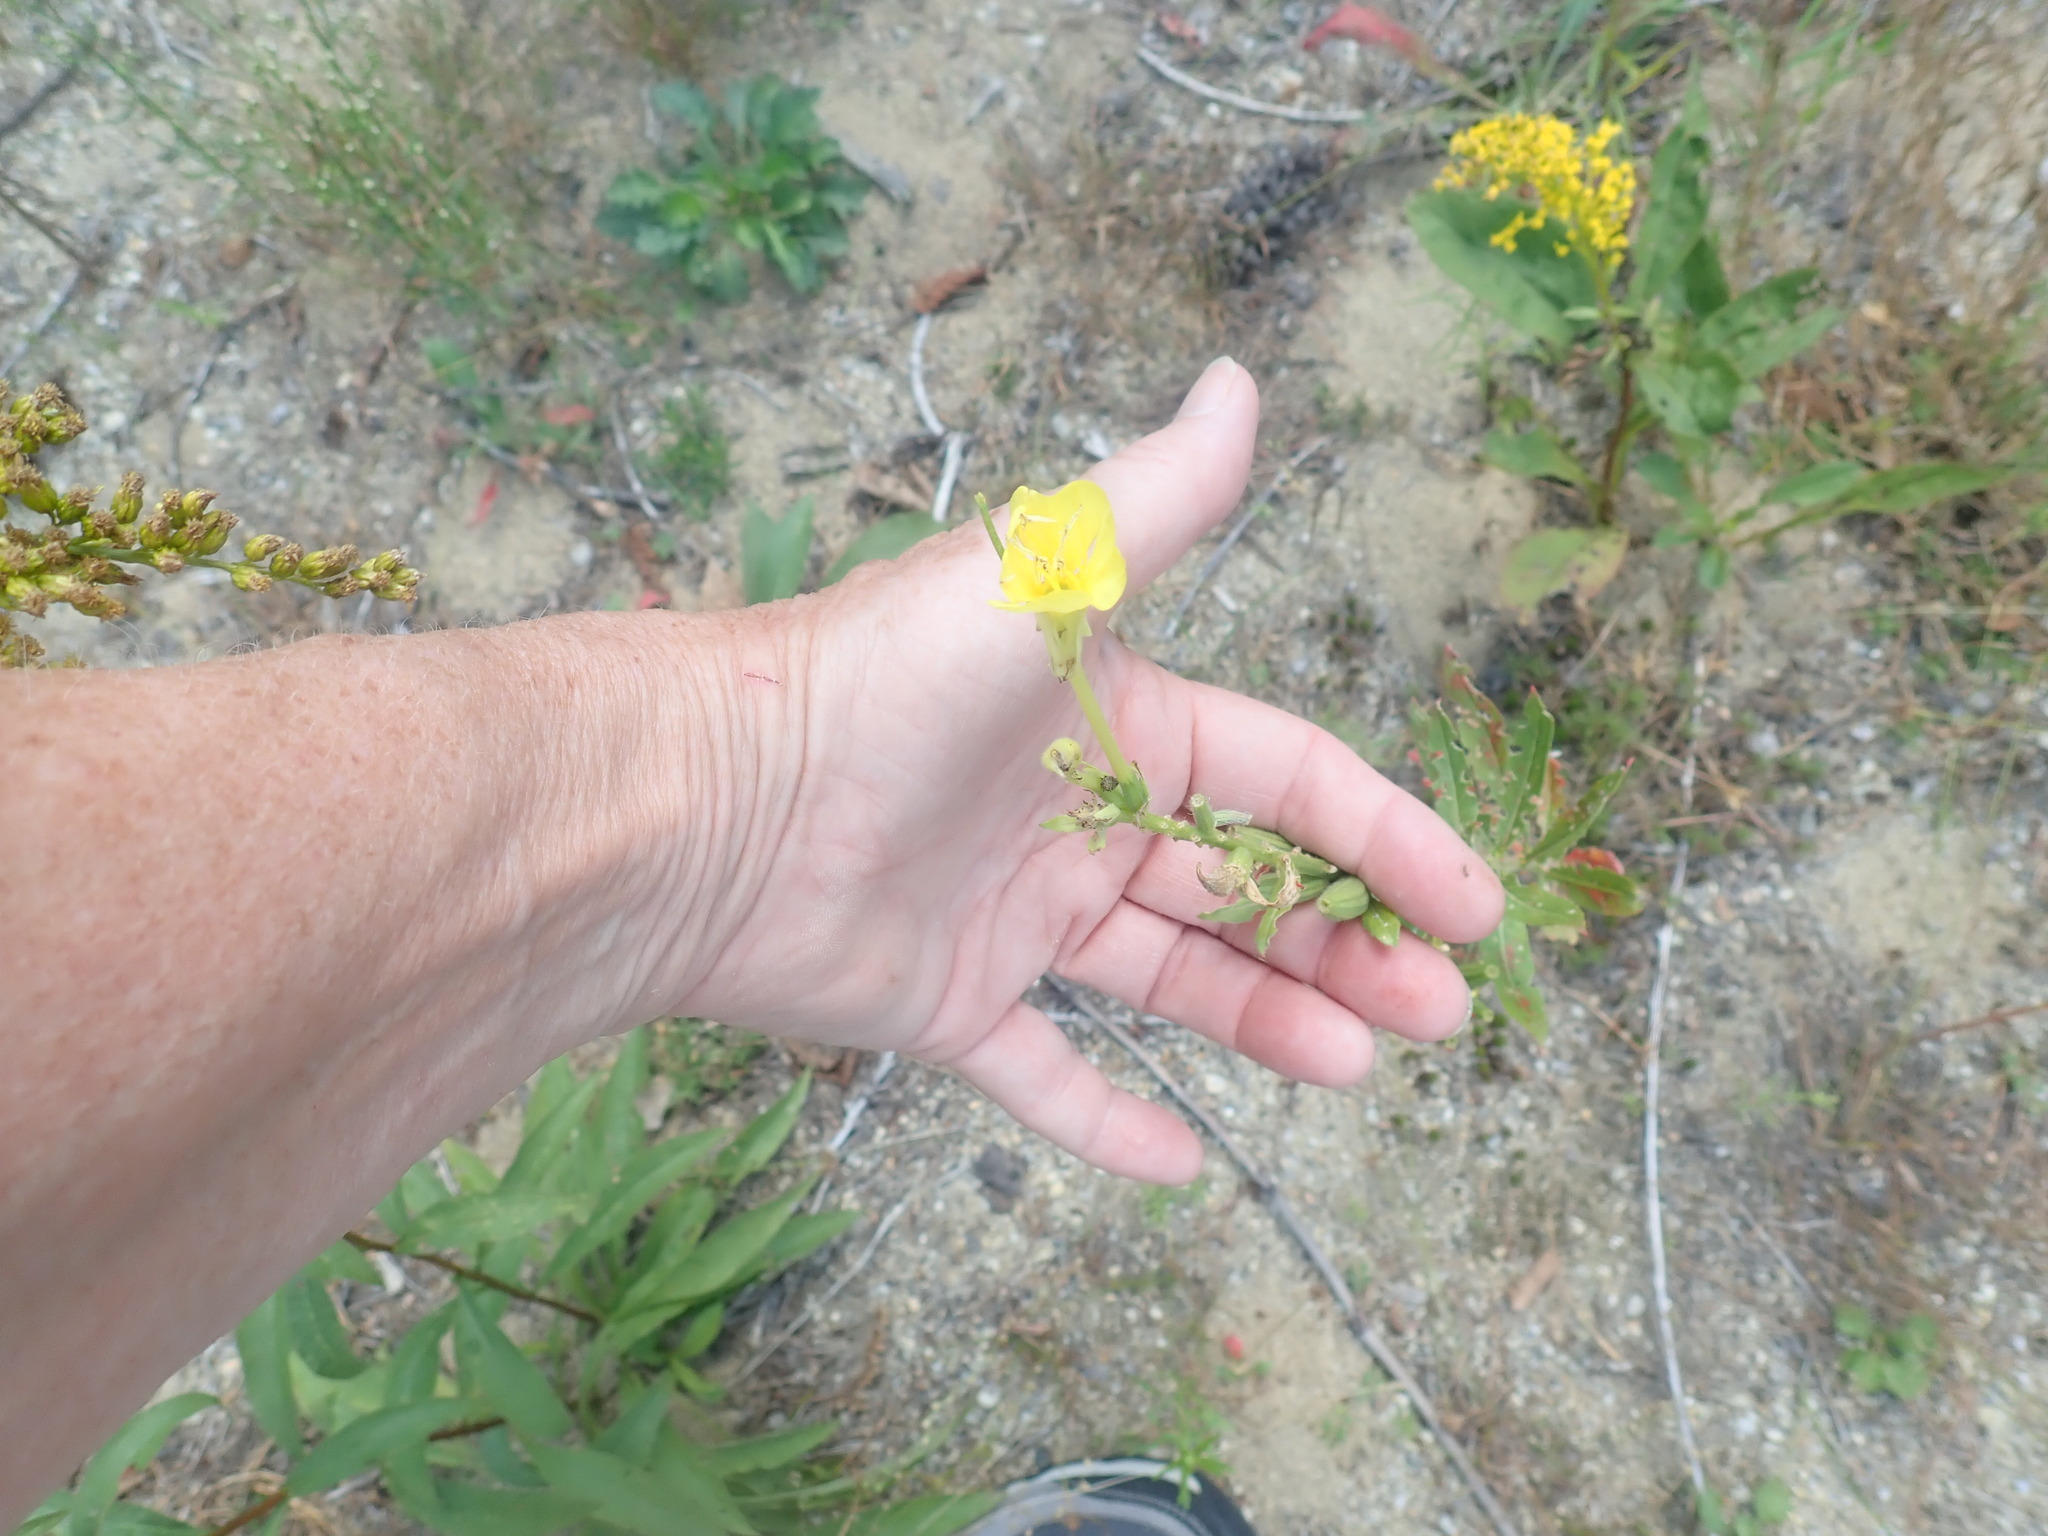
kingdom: Plantae
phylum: Tracheophyta
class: Magnoliopsida
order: Myrtales
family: Onagraceae
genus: Oenothera
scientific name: Oenothera biennis
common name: Common evening-primrose
